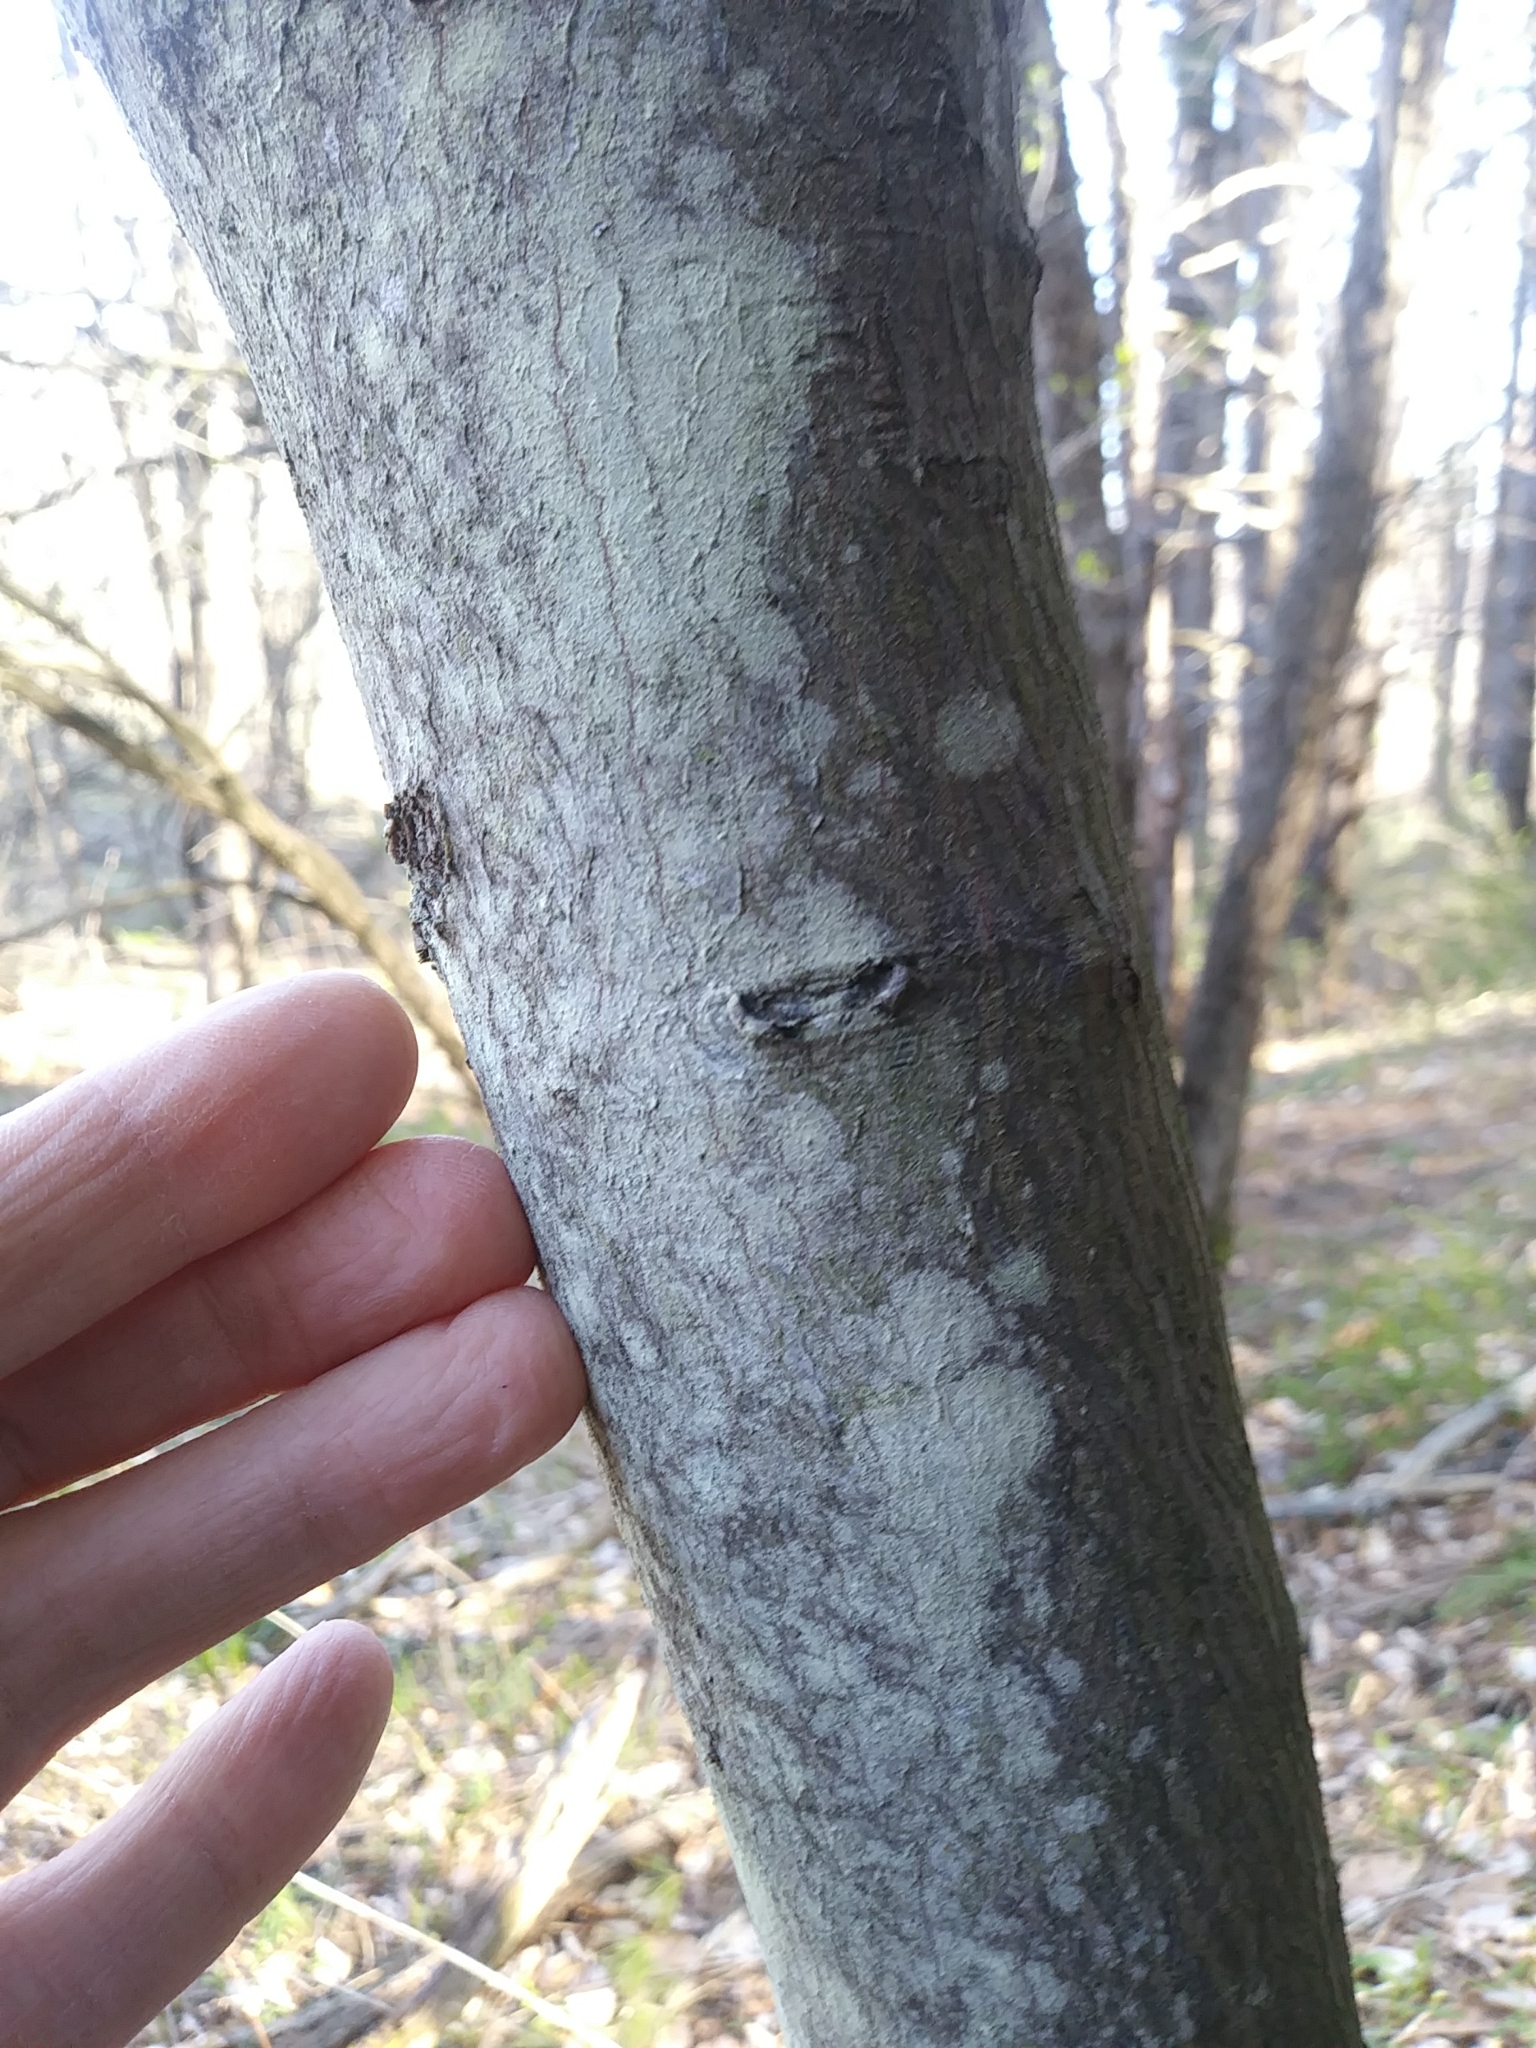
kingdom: Plantae
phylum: Tracheophyta
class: Magnoliopsida
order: Rosales
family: Rosaceae
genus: Amelanchier
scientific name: Amelanchier laevis
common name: Allegheny serviceberry
